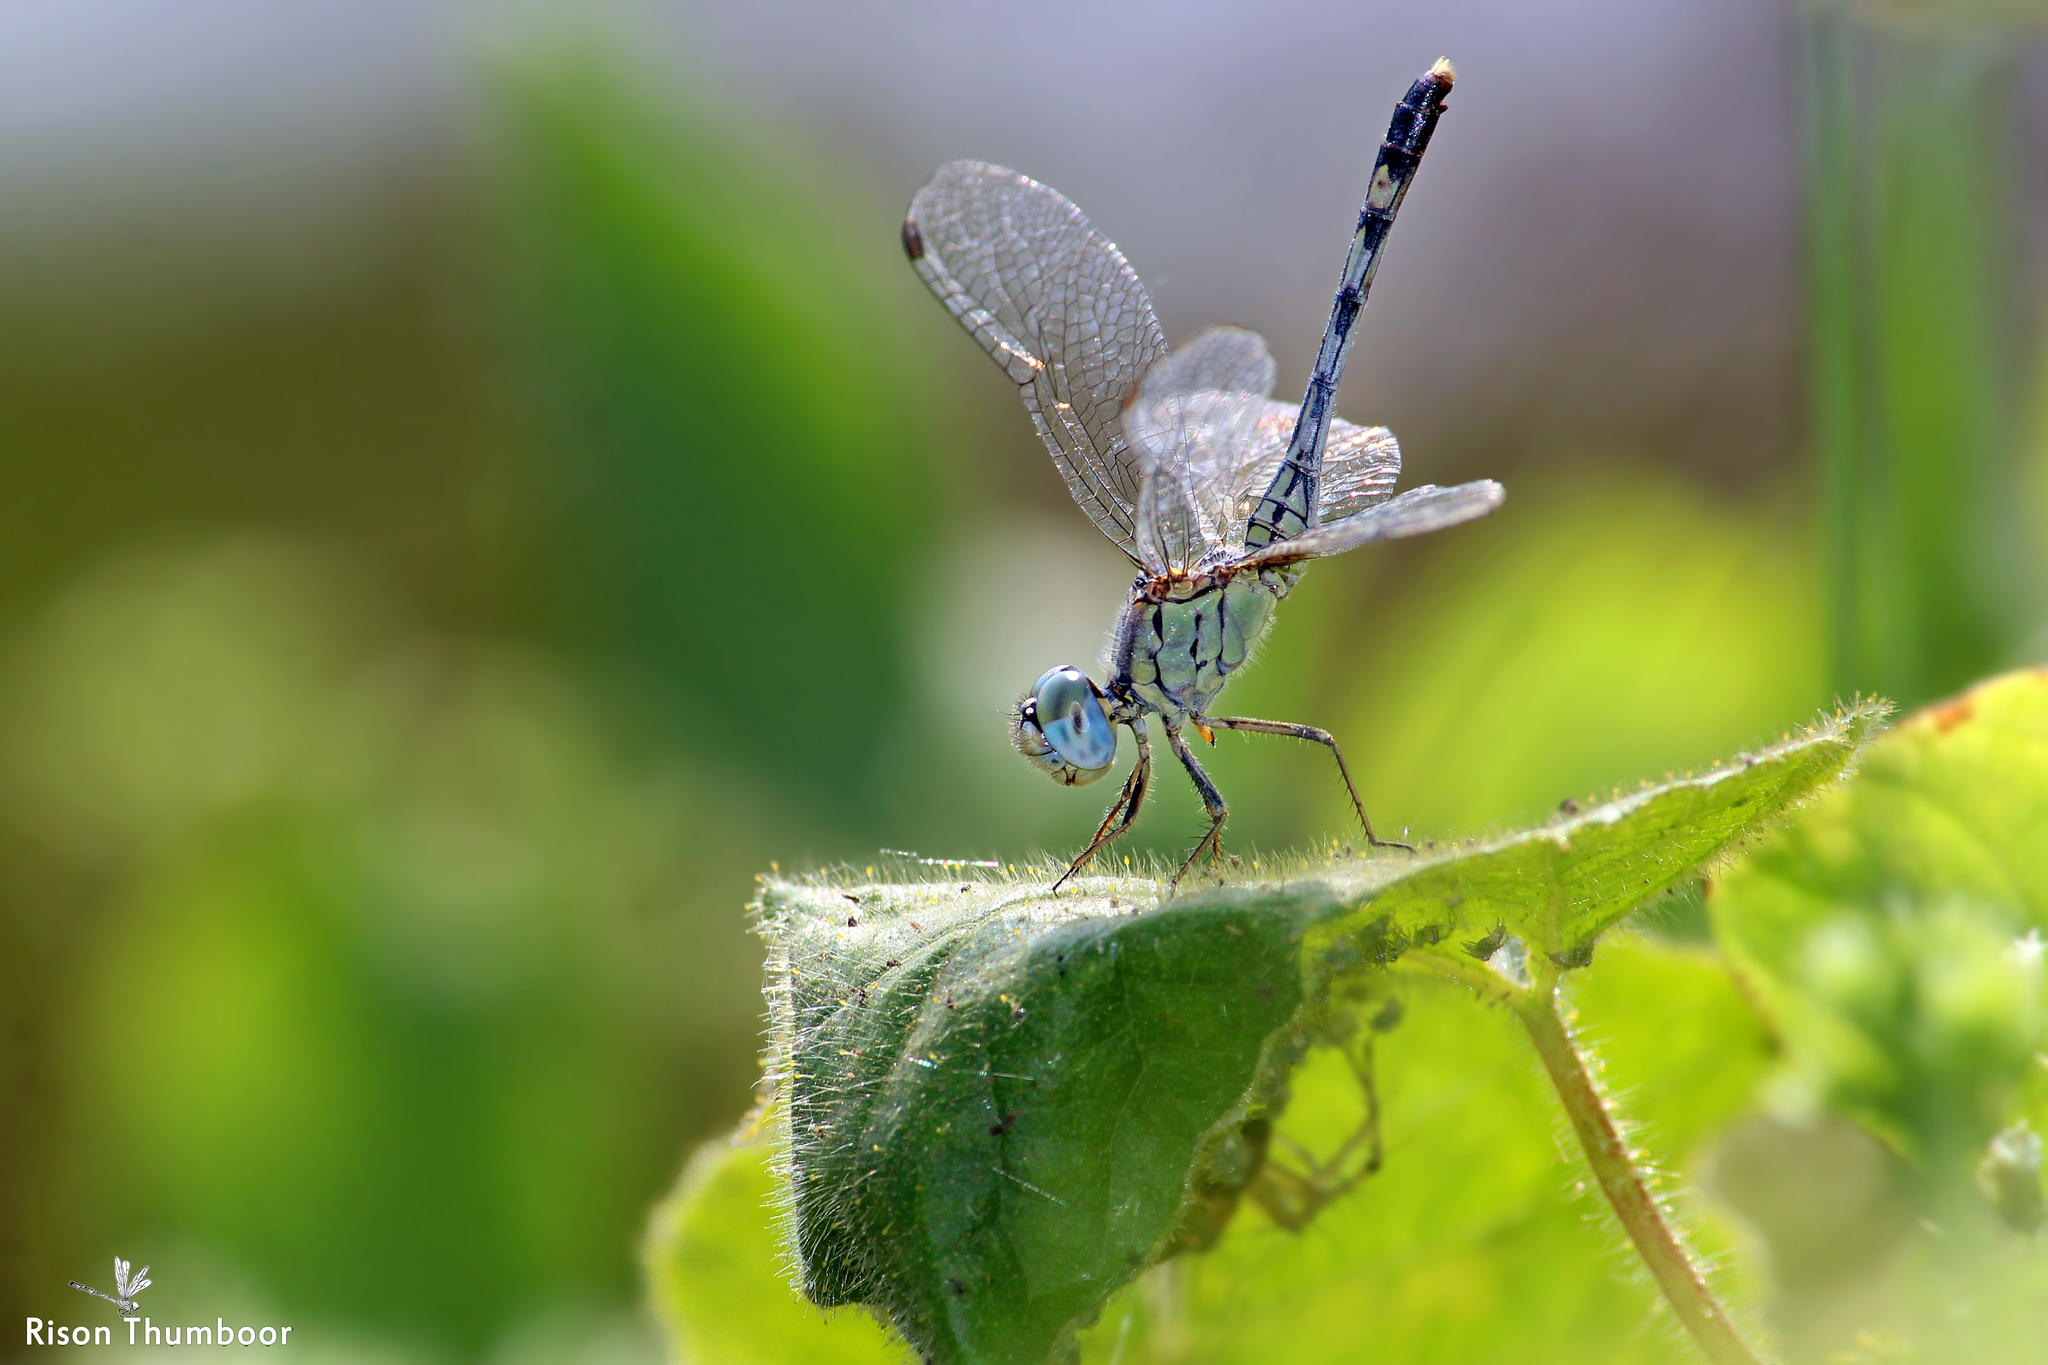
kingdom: Animalia
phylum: Arthropoda
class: Insecta
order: Odonata
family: Libellulidae
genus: Diplacodes
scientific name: Diplacodes trivialis
